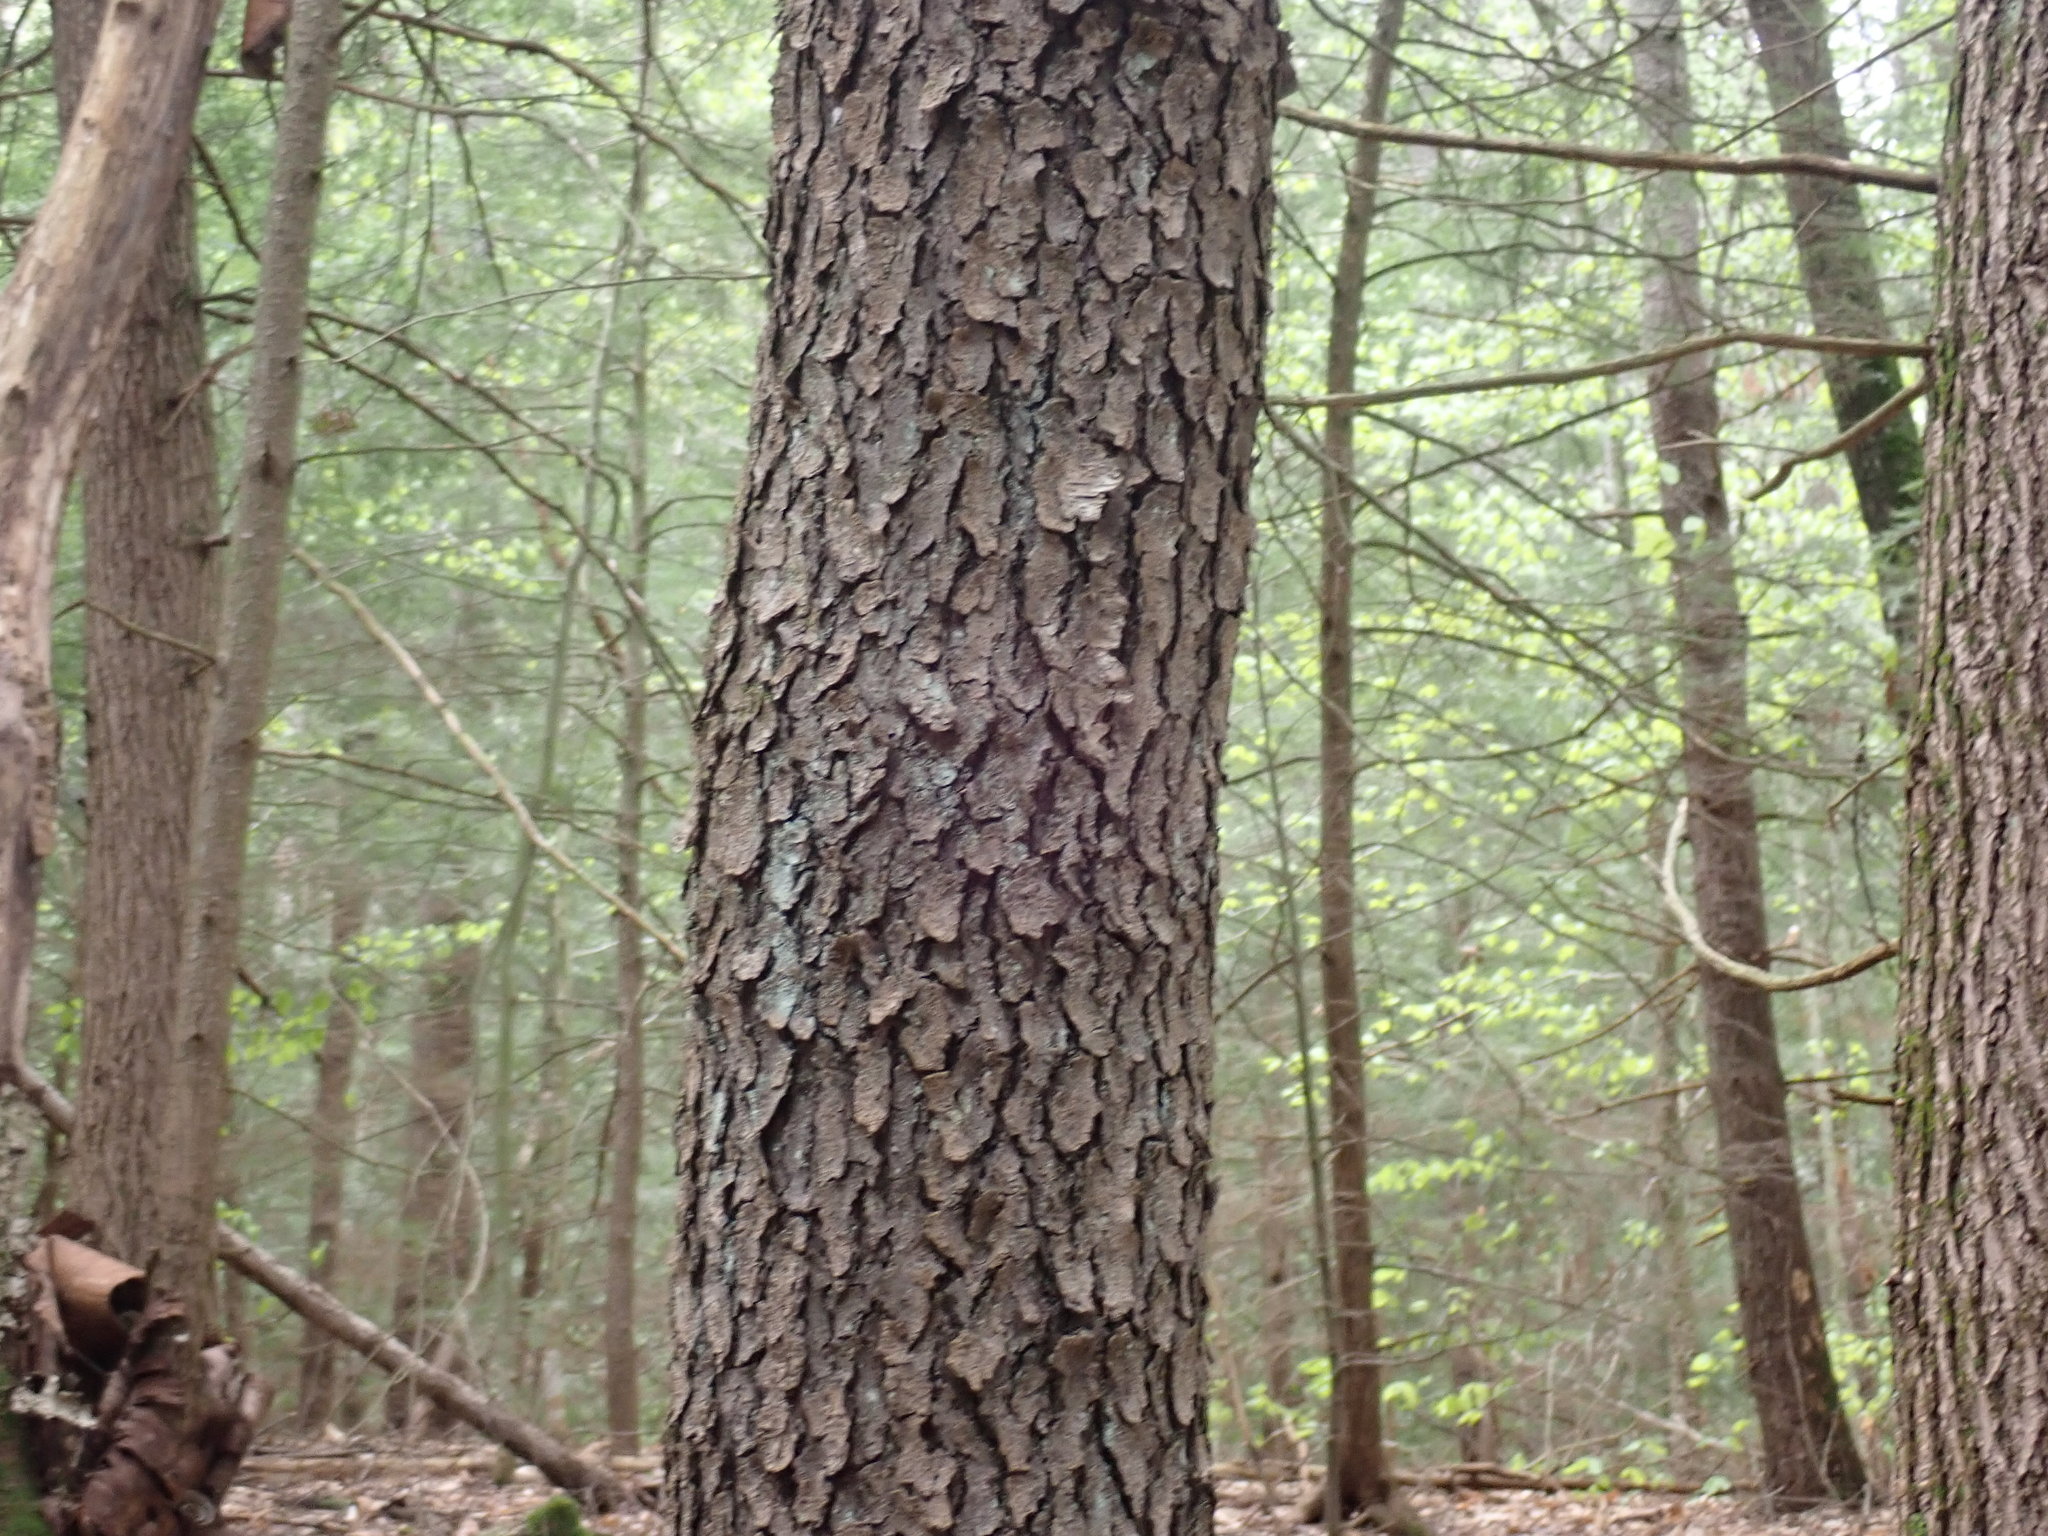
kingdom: Plantae
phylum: Tracheophyta
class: Magnoliopsida
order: Rosales
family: Rosaceae
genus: Prunus
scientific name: Prunus serotina
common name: Black cherry
